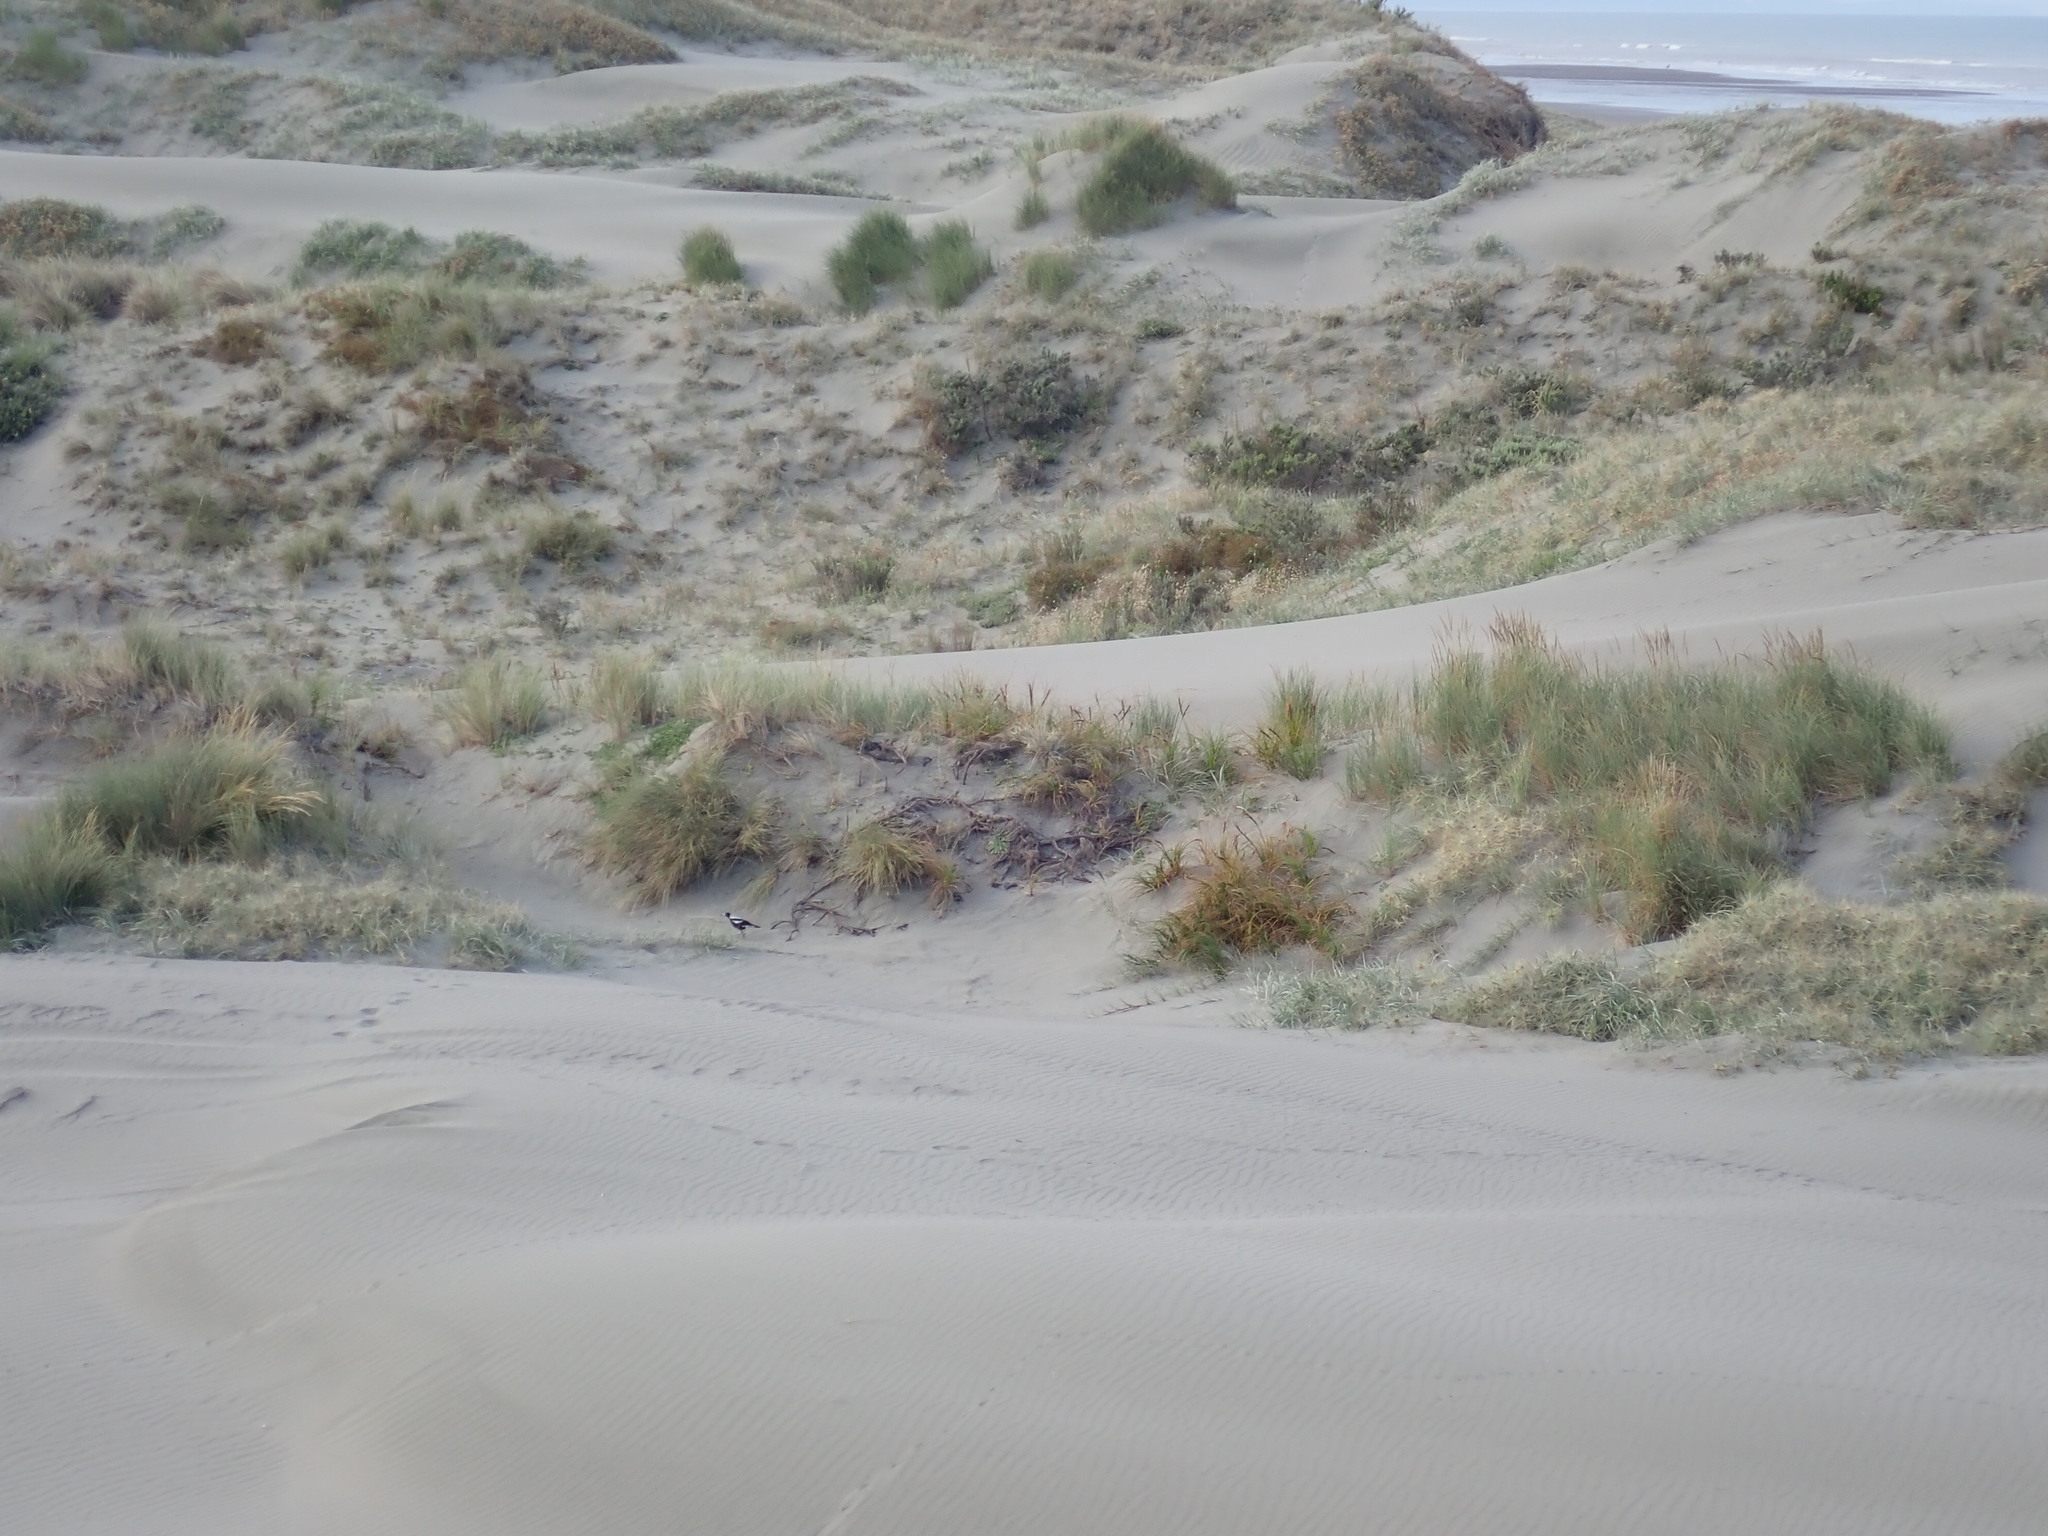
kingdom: Animalia
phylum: Chordata
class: Aves
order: Passeriformes
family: Cracticidae
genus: Gymnorhina
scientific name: Gymnorhina tibicen
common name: Australian magpie
